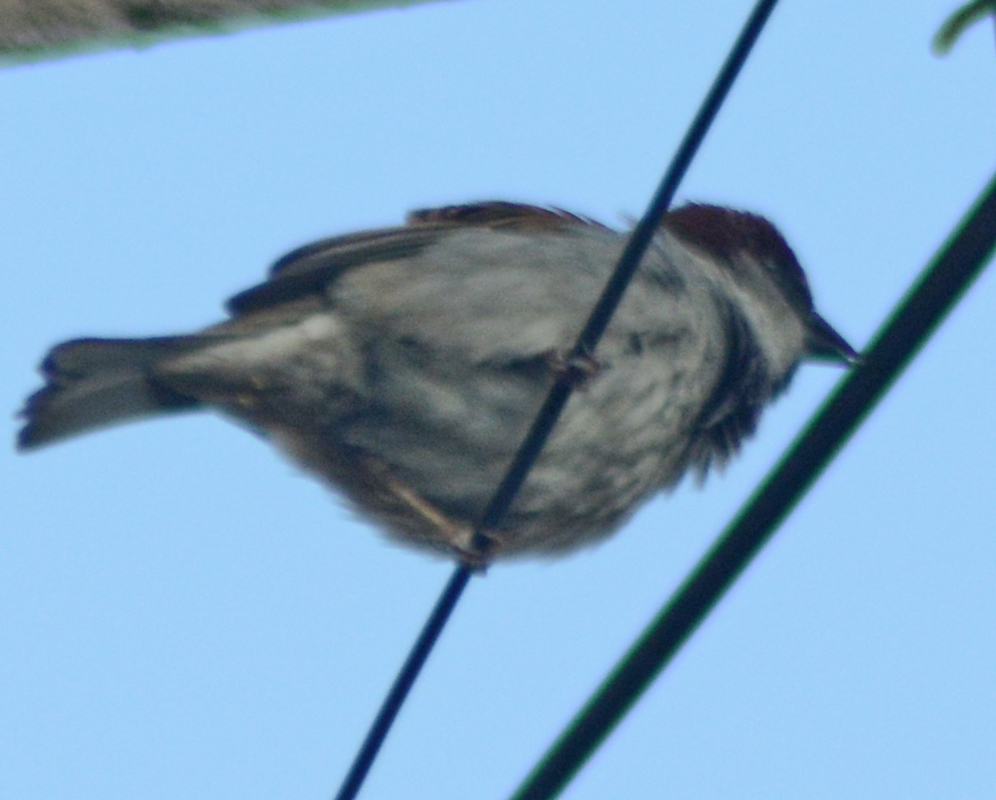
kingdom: Animalia
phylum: Chordata
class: Aves
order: Passeriformes
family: Passeridae
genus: Passer
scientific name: Passer domesticus
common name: House sparrow
